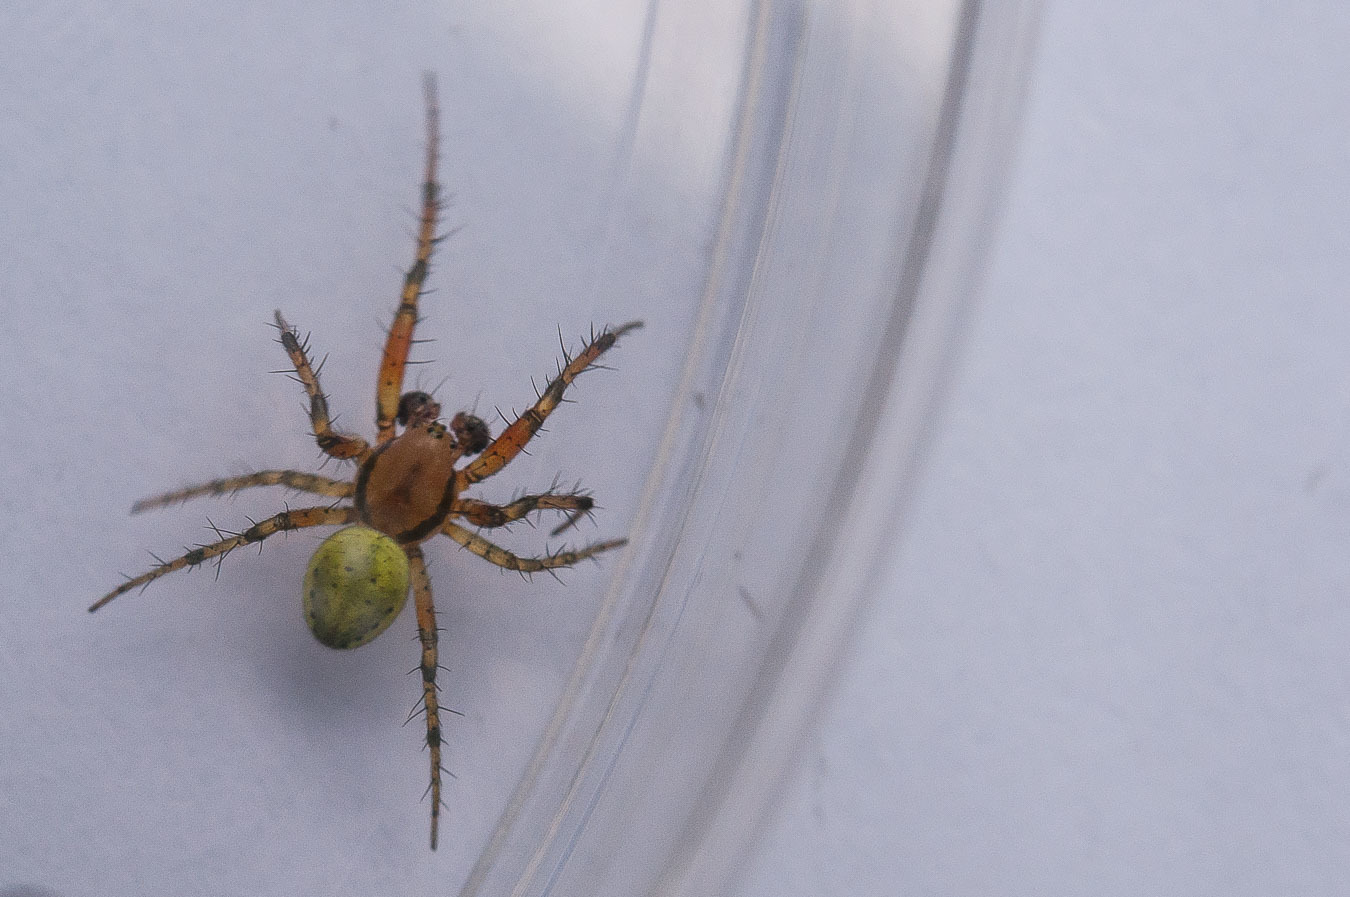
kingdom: Animalia
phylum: Arthropoda
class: Arachnida
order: Araneae
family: Araneidae
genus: Araniella
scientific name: Araniella
